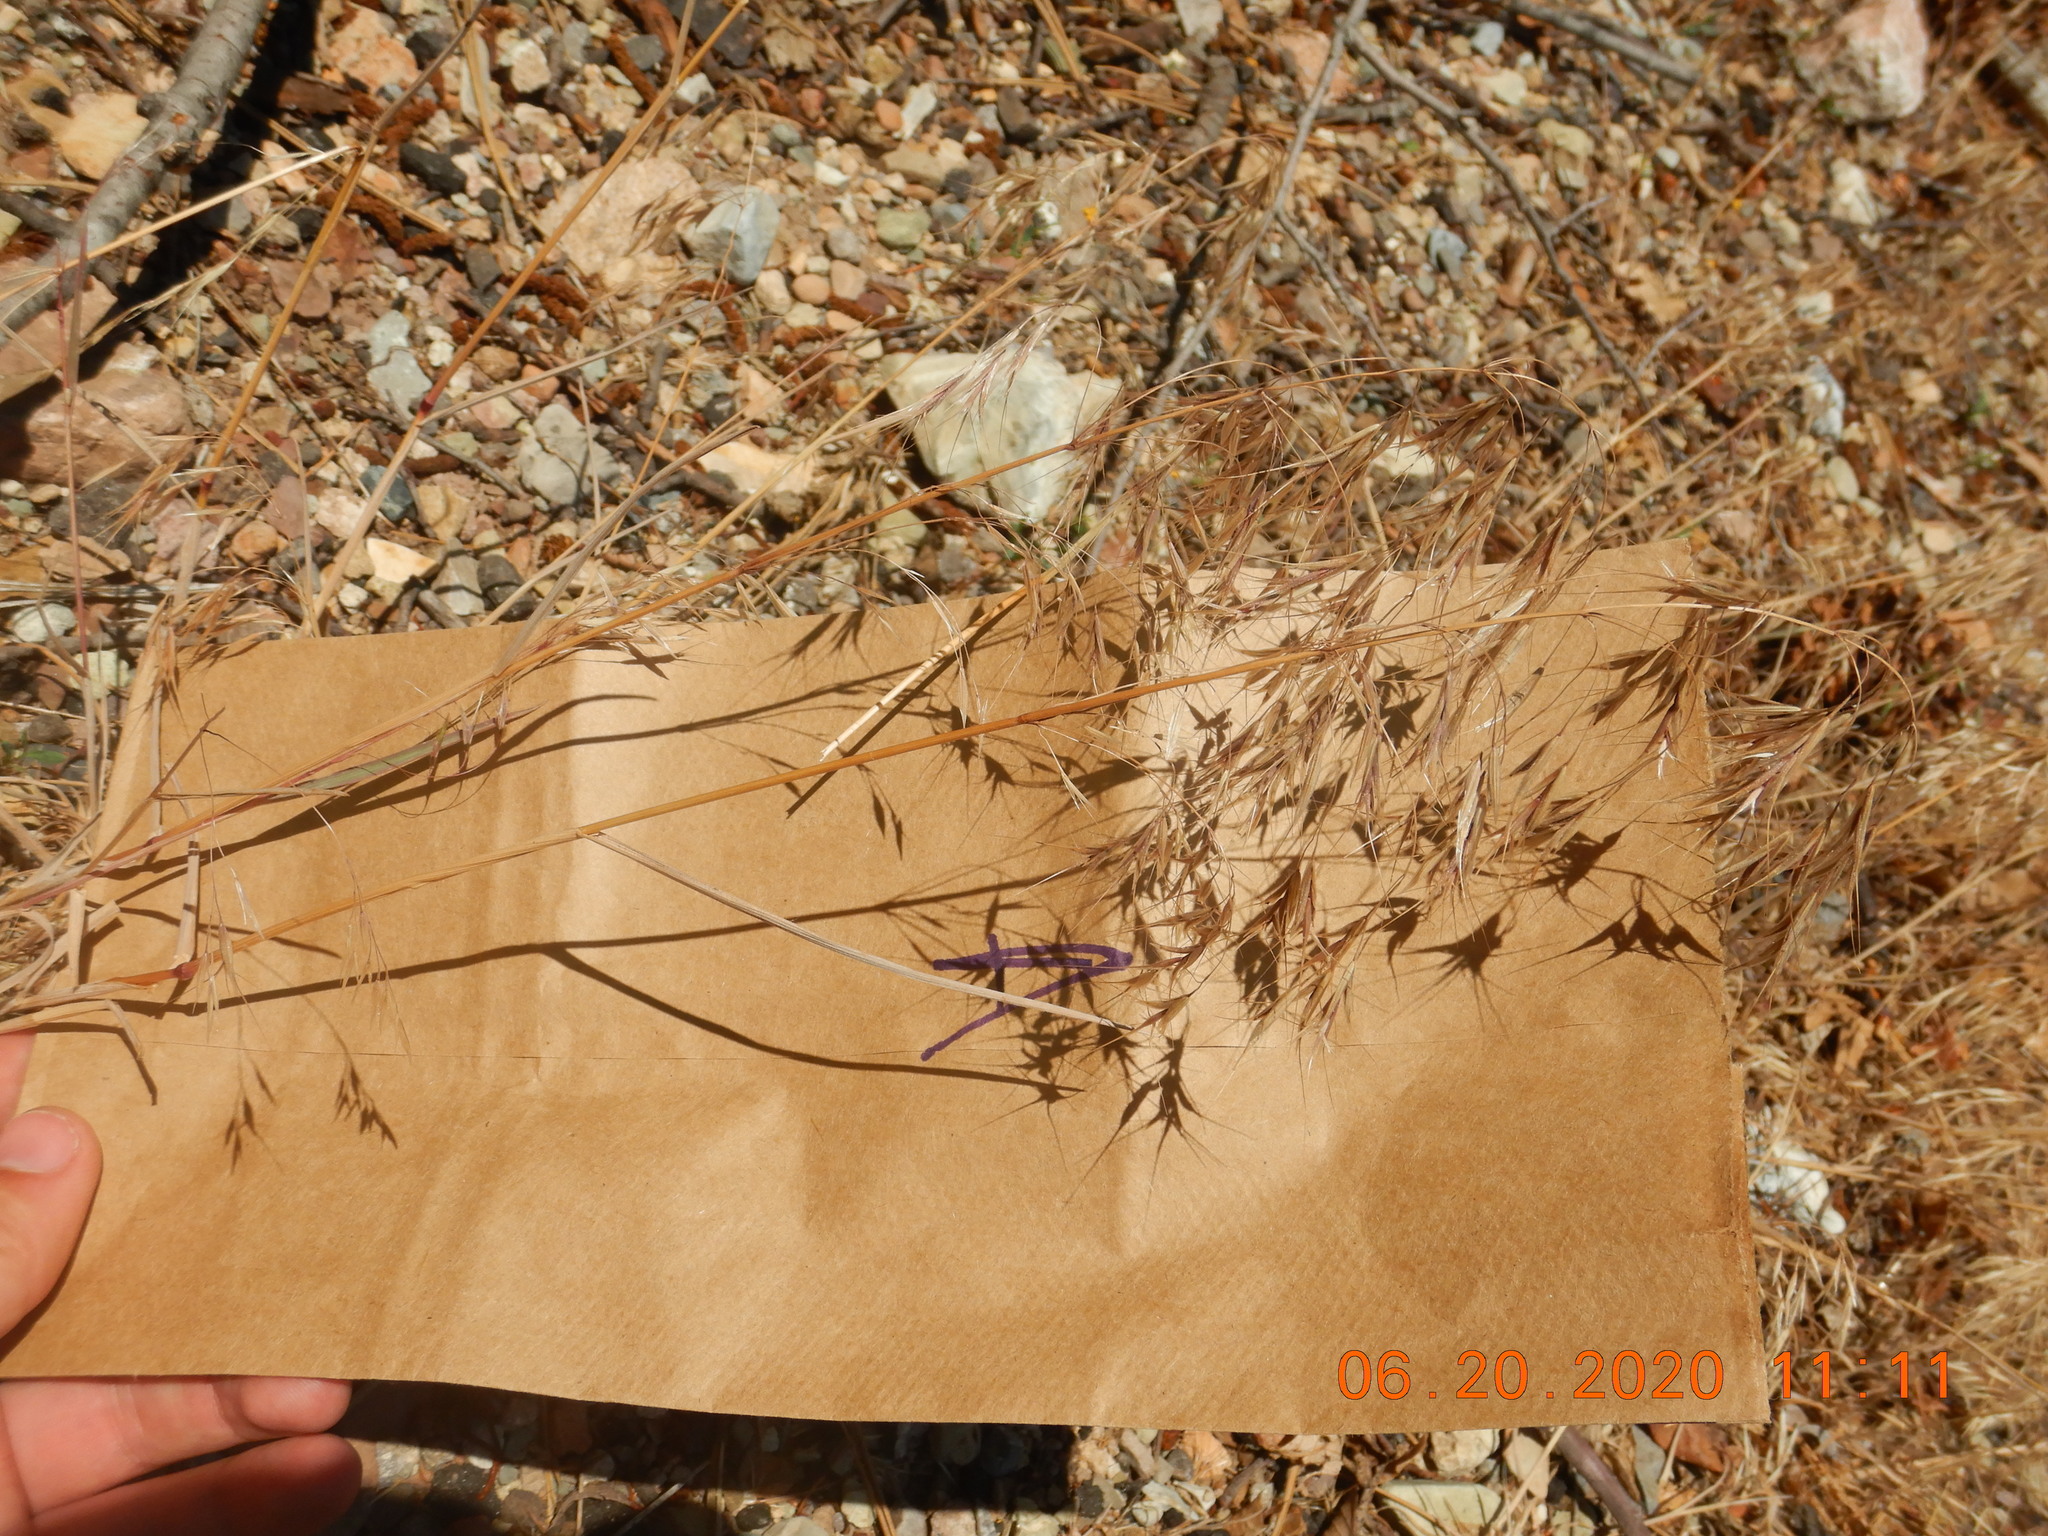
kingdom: Plantae
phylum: Tracheophyta
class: Liliopsida
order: Poales
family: Poaceae
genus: Bromus
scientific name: Bromus tectorum
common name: Cheatgrass
